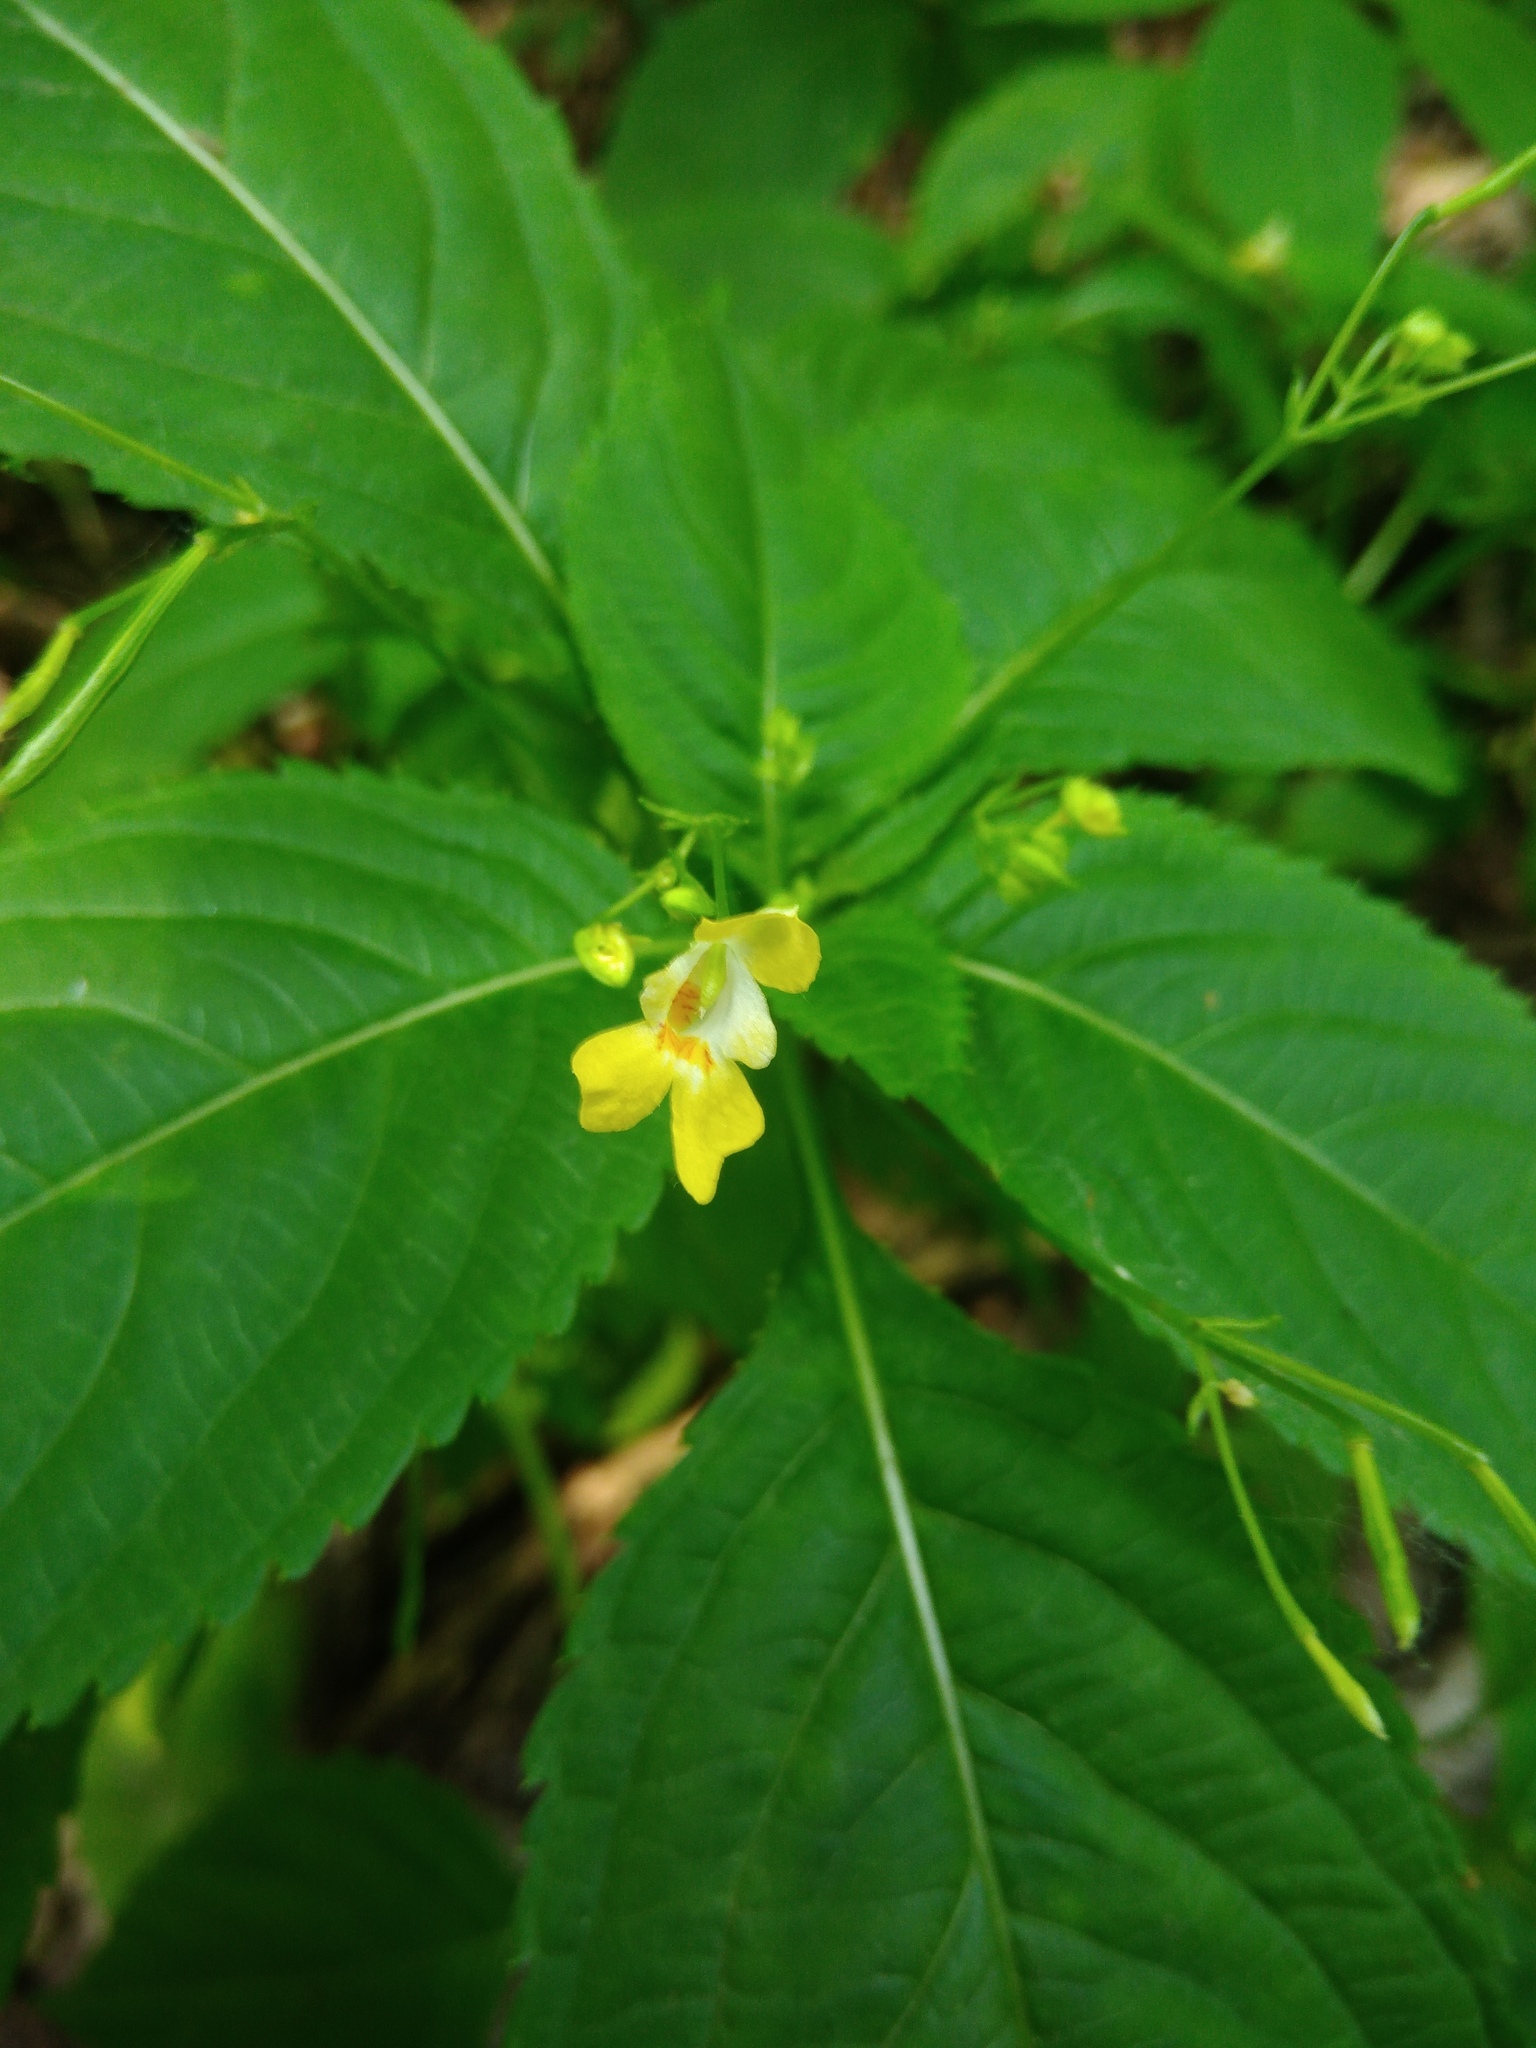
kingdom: Plantae
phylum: Tracheophyta
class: Magnoliopsida
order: Ericales
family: Balsaminaceae
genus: Impatiens
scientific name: Impatiens parviflora
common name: Small balsam
